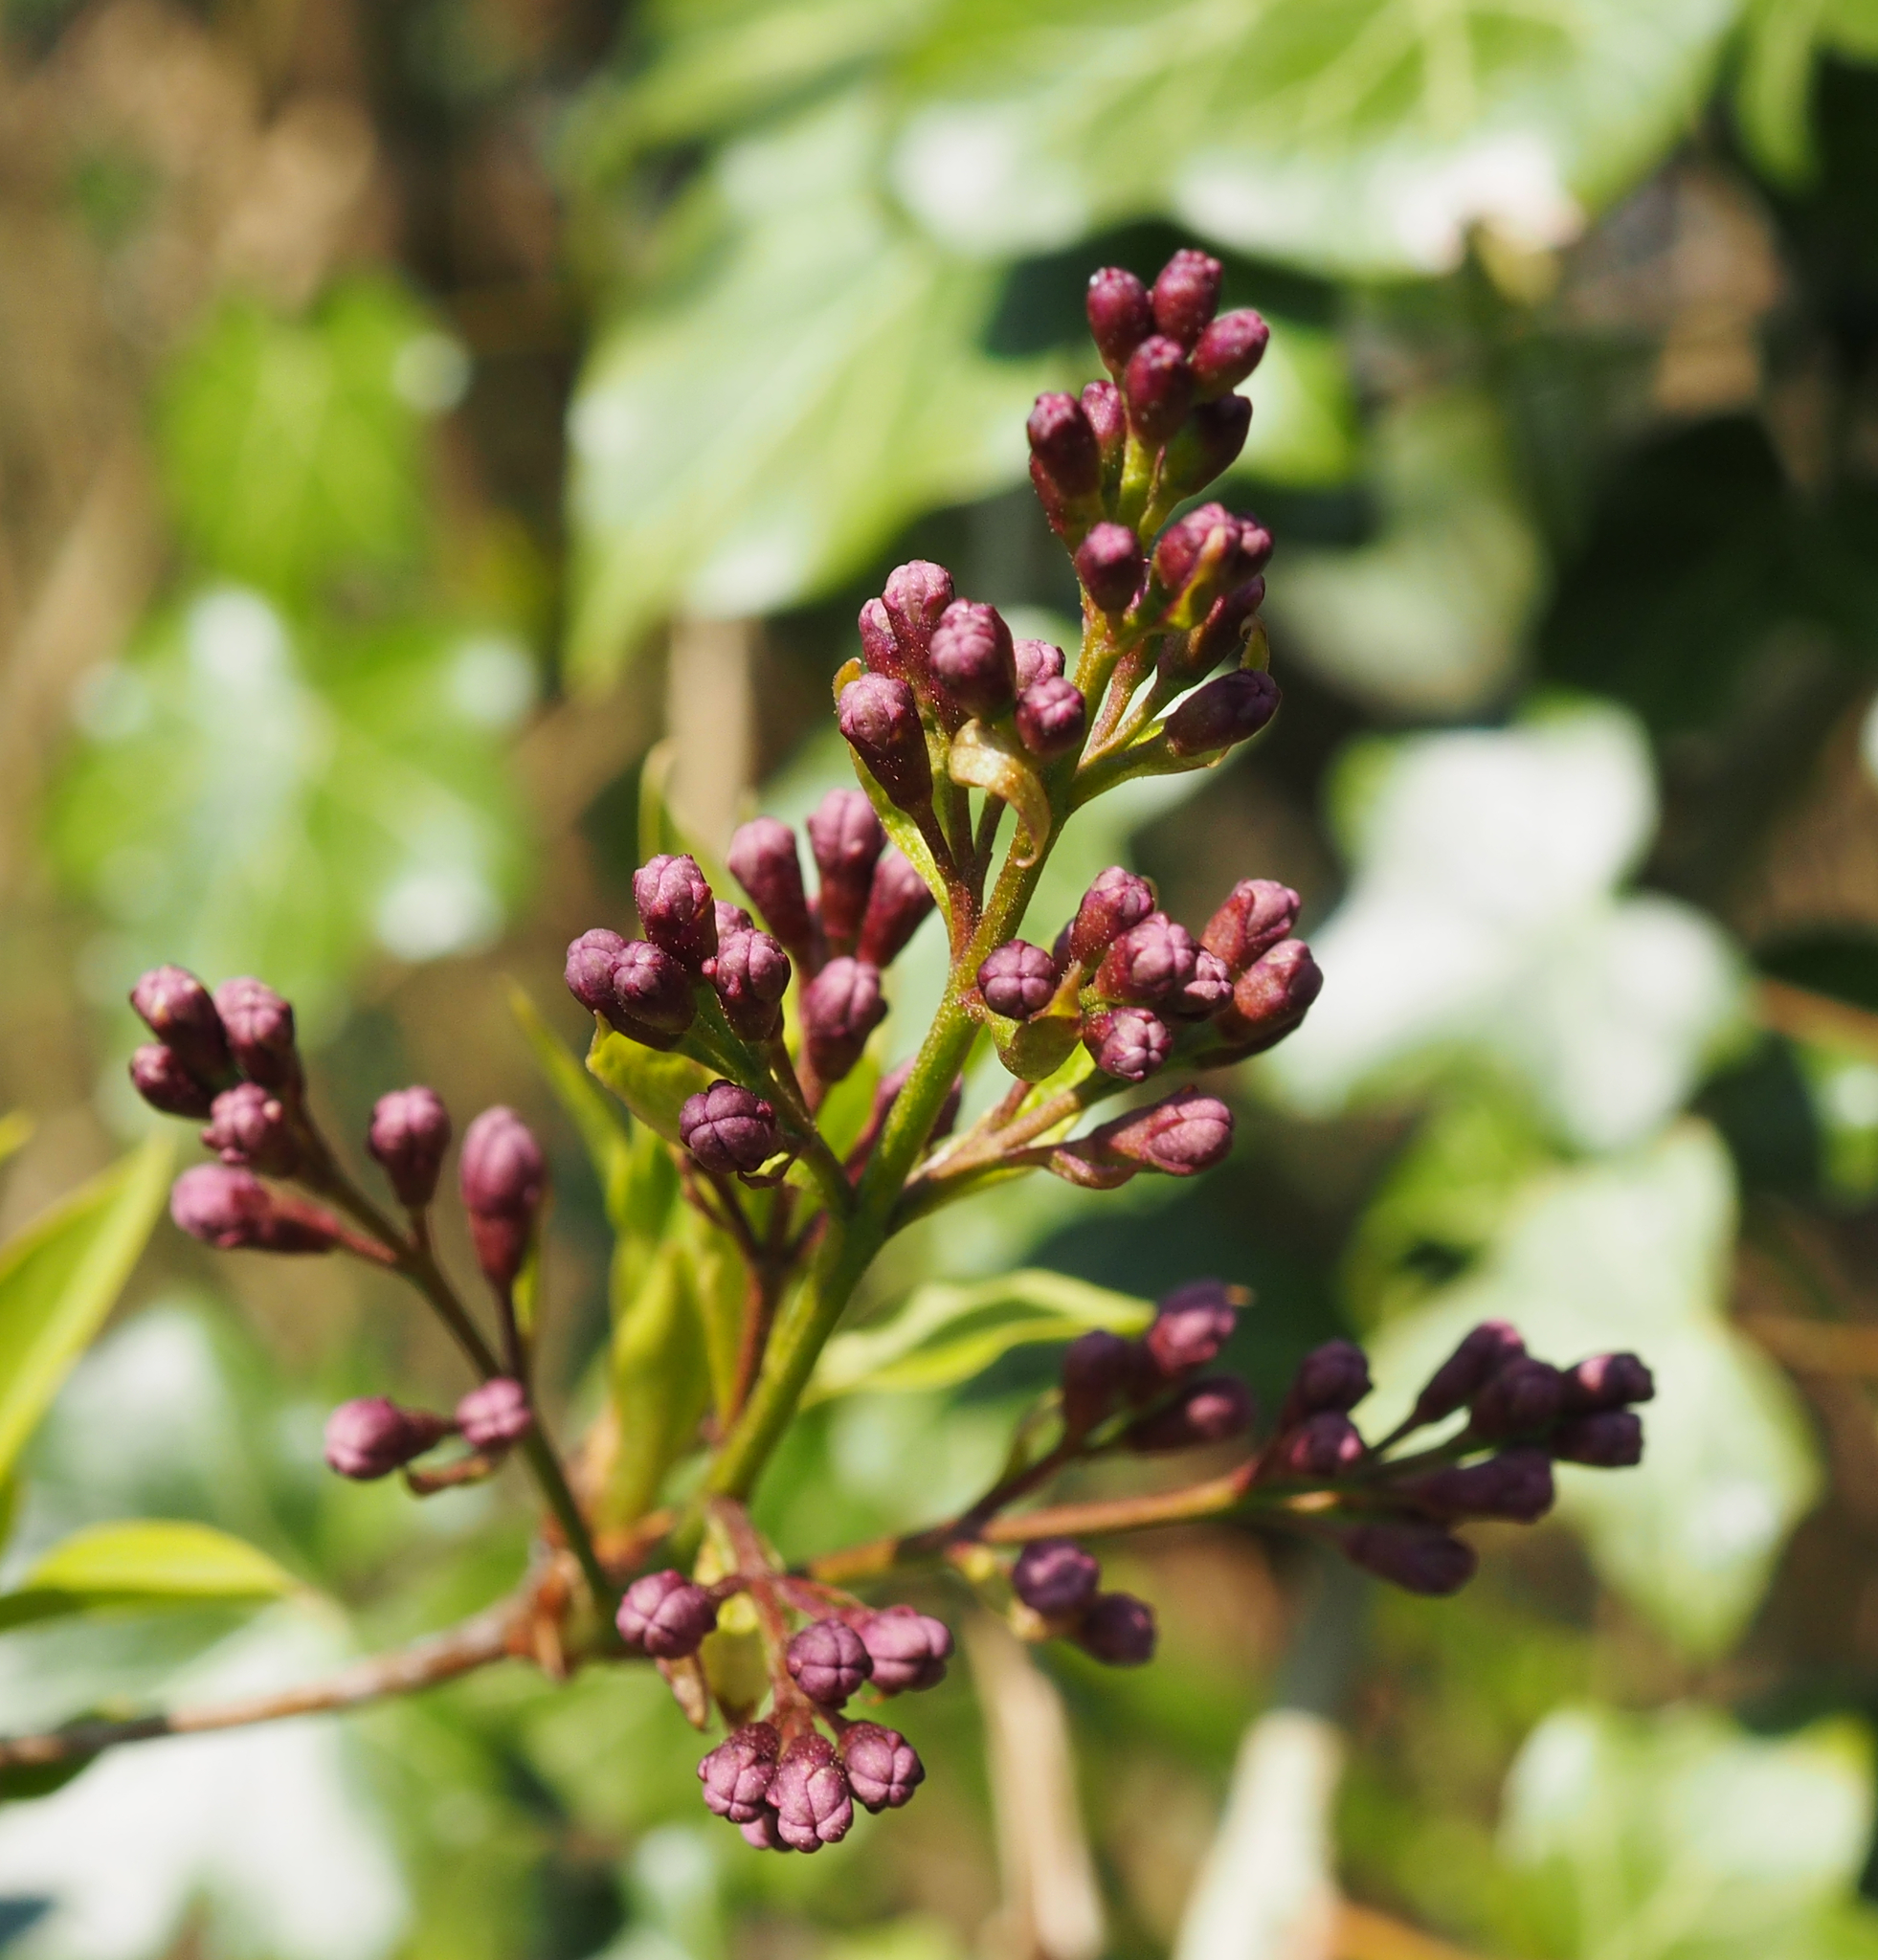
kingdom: Plantae
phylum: Tracheophyta
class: Magnoliopsida
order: Lamiales
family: Oleaceae
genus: Syringa
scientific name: Syringa vulgaris
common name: Common lilac
